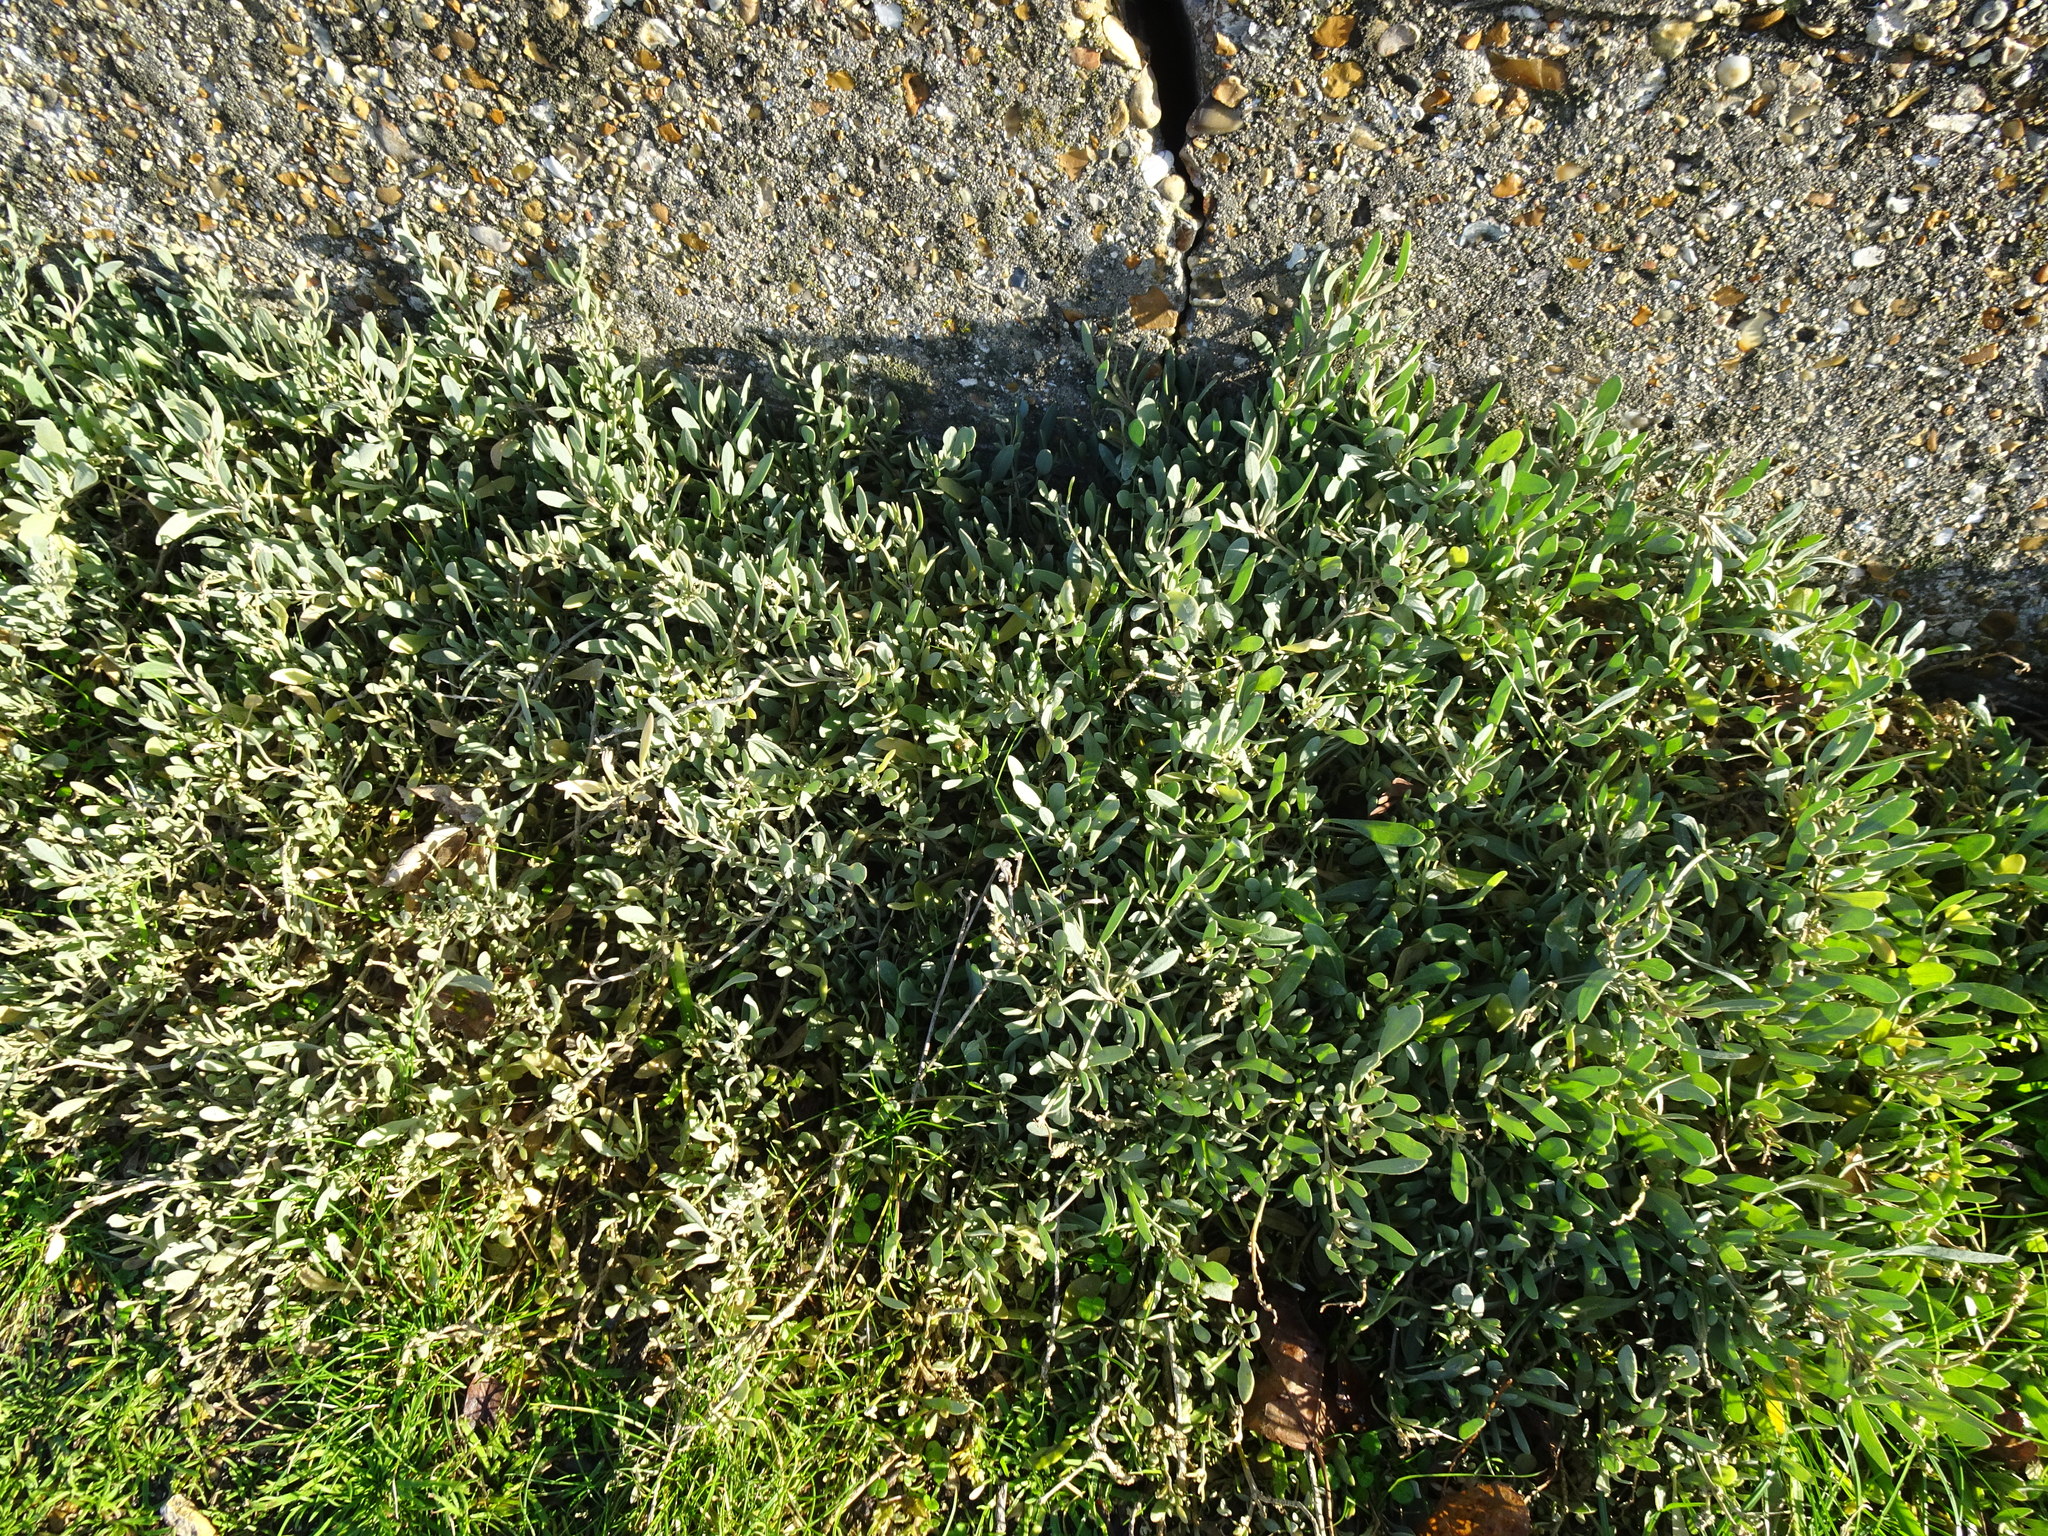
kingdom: Plantae
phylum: Tracheophyta
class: Magnoliopsida
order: Caryophyllales
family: Amaranthaceae
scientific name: Amaranthaceae
